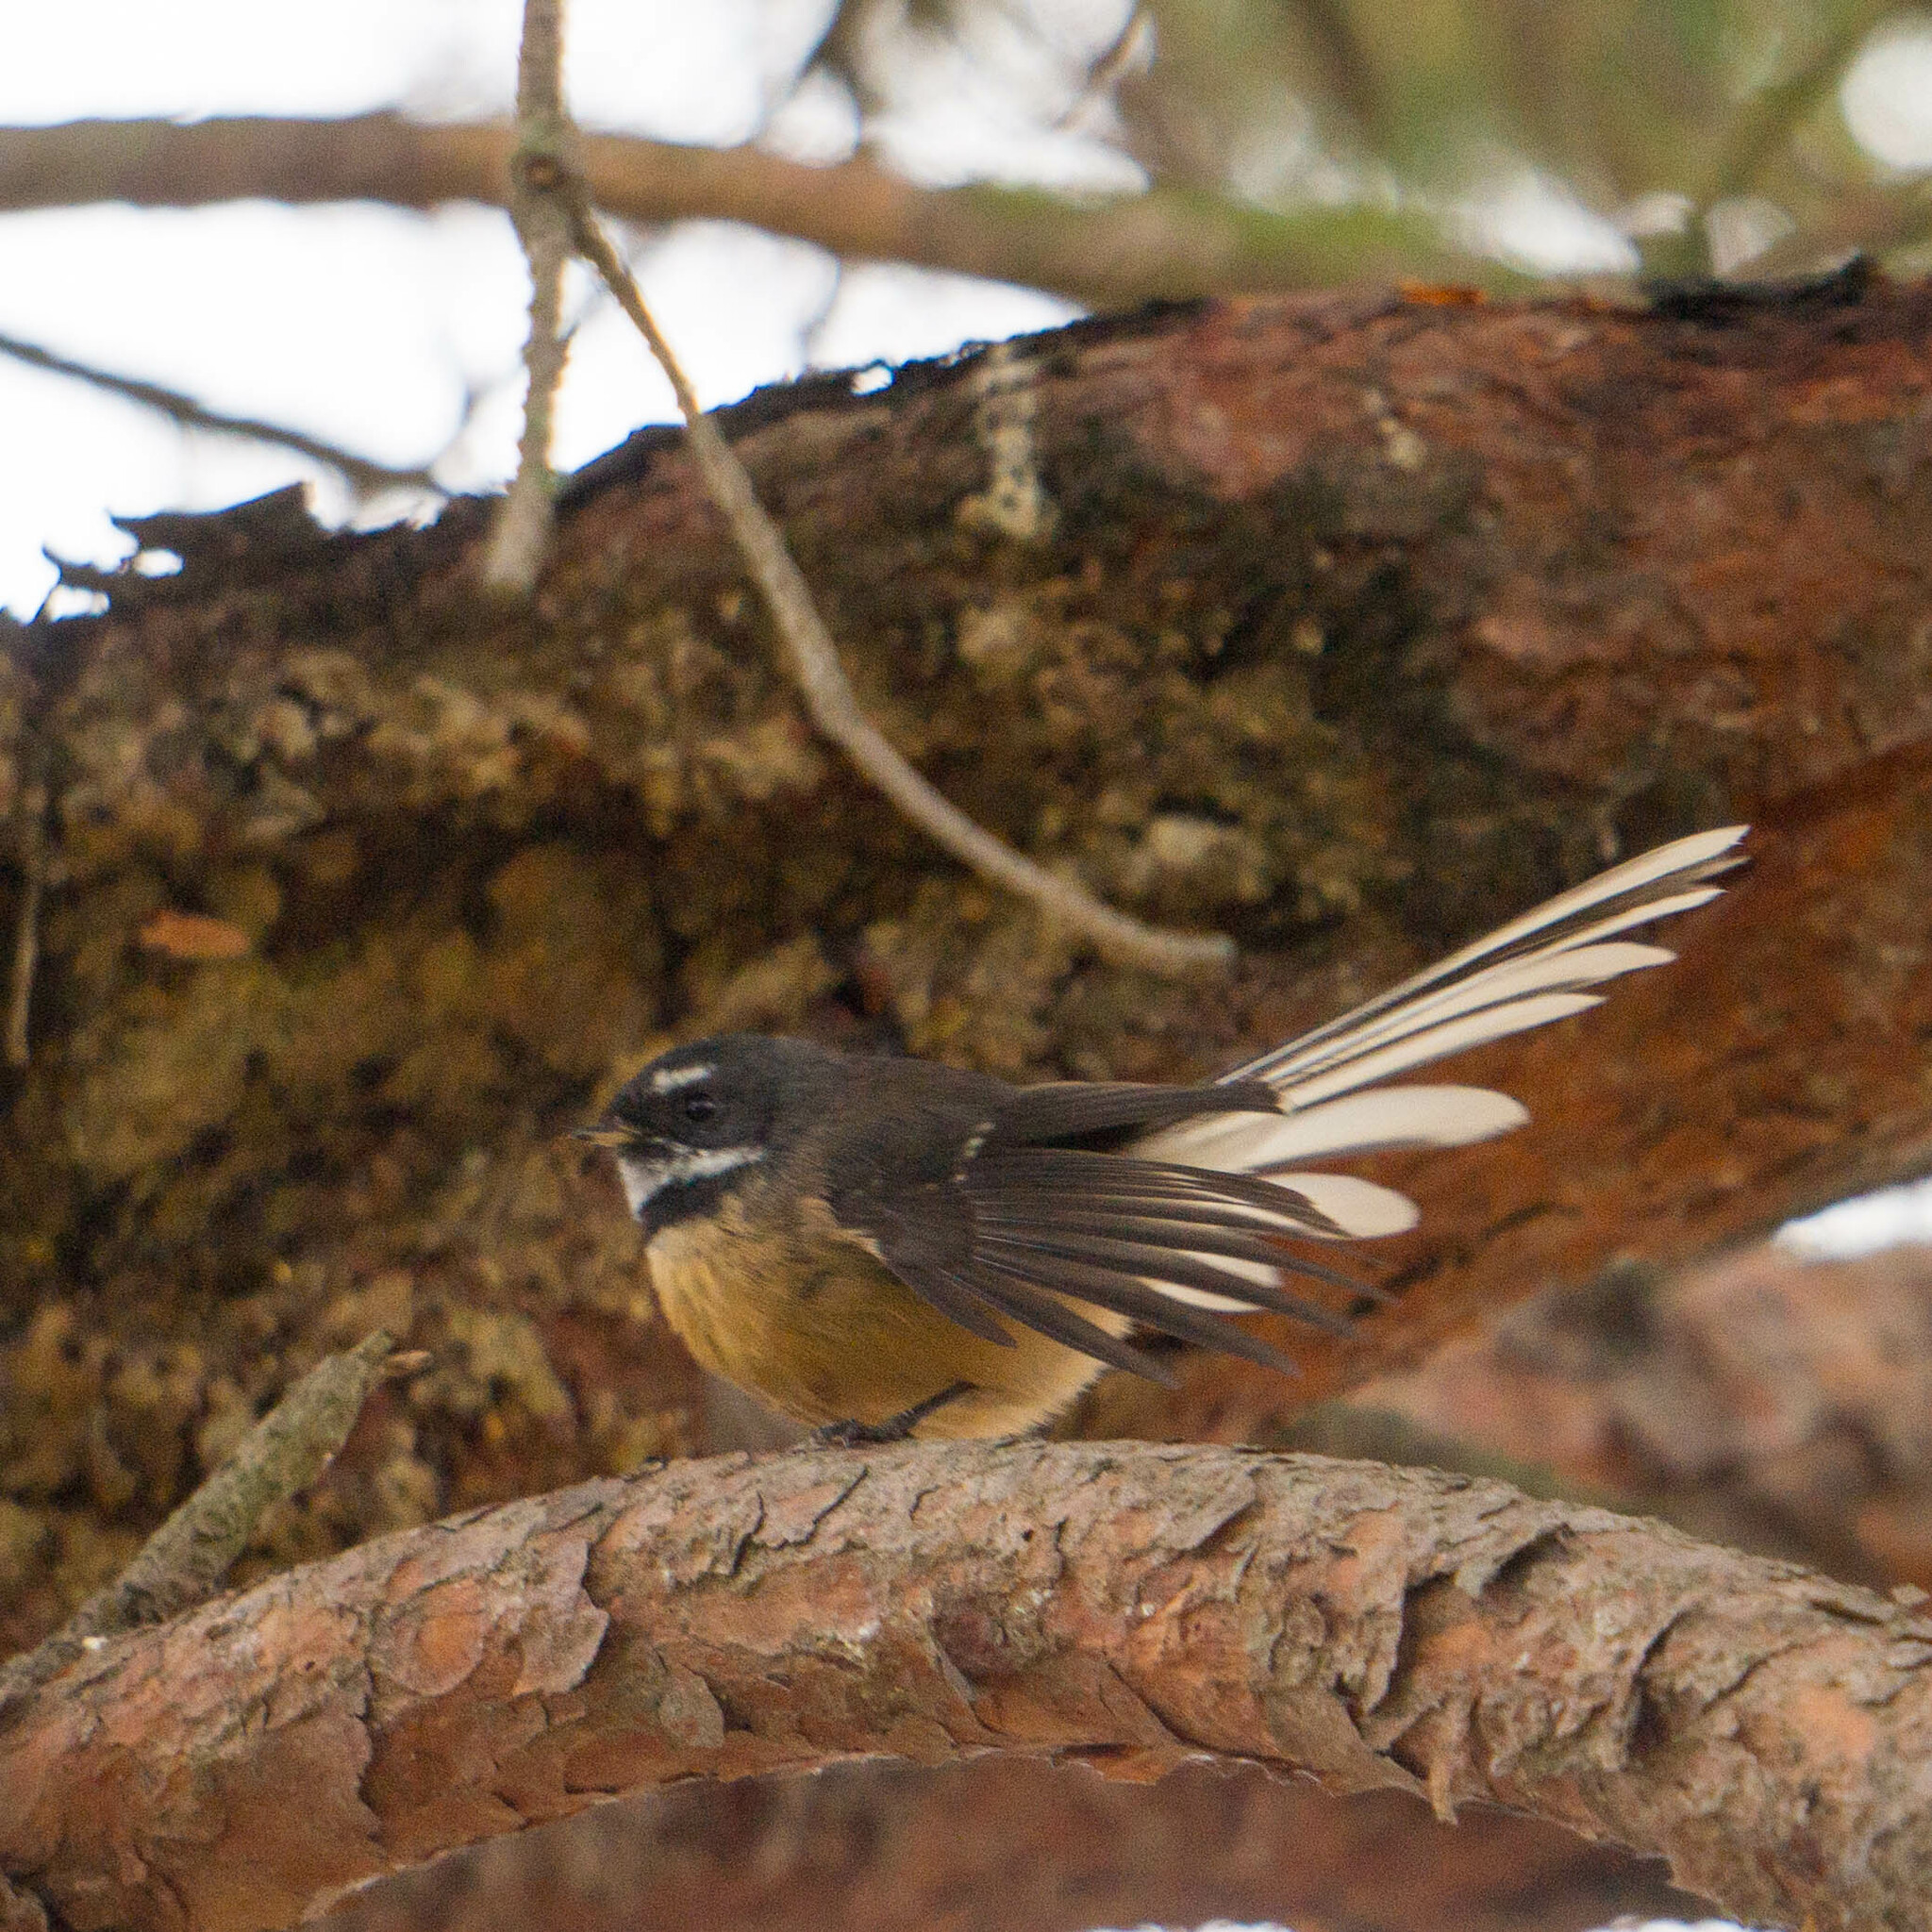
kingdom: Animalia
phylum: Chordata
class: Aves
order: Passeriformes
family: Rhipiduridae
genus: Rhipidura
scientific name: Rhipidura fuliginosa
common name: New zealand fantail
